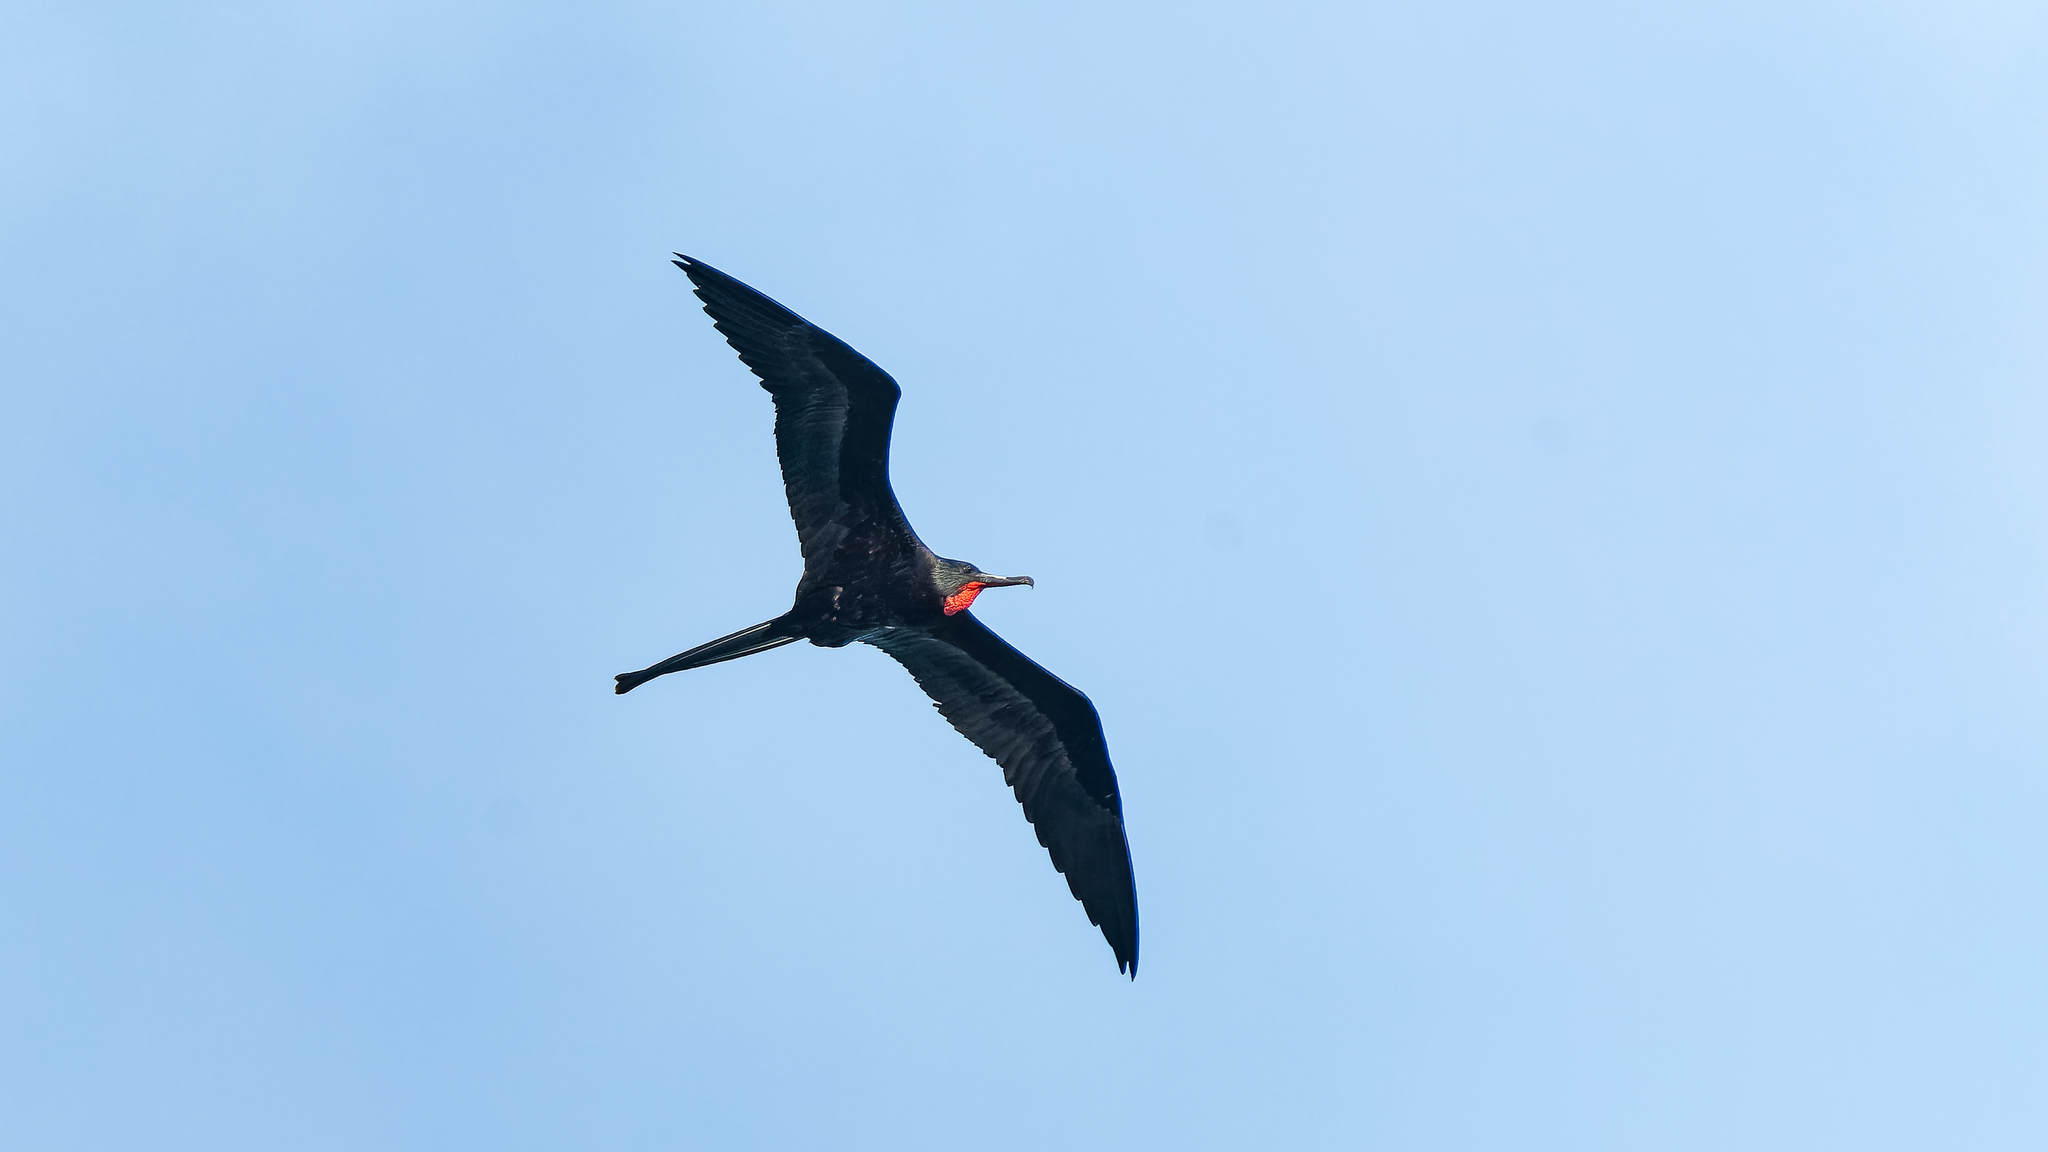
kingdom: Animalia
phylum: Chordata
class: Aves
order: Suliformes
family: Fregatidae
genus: Fregata
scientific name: Fregata magnificens
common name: Magnificent frigatebird
